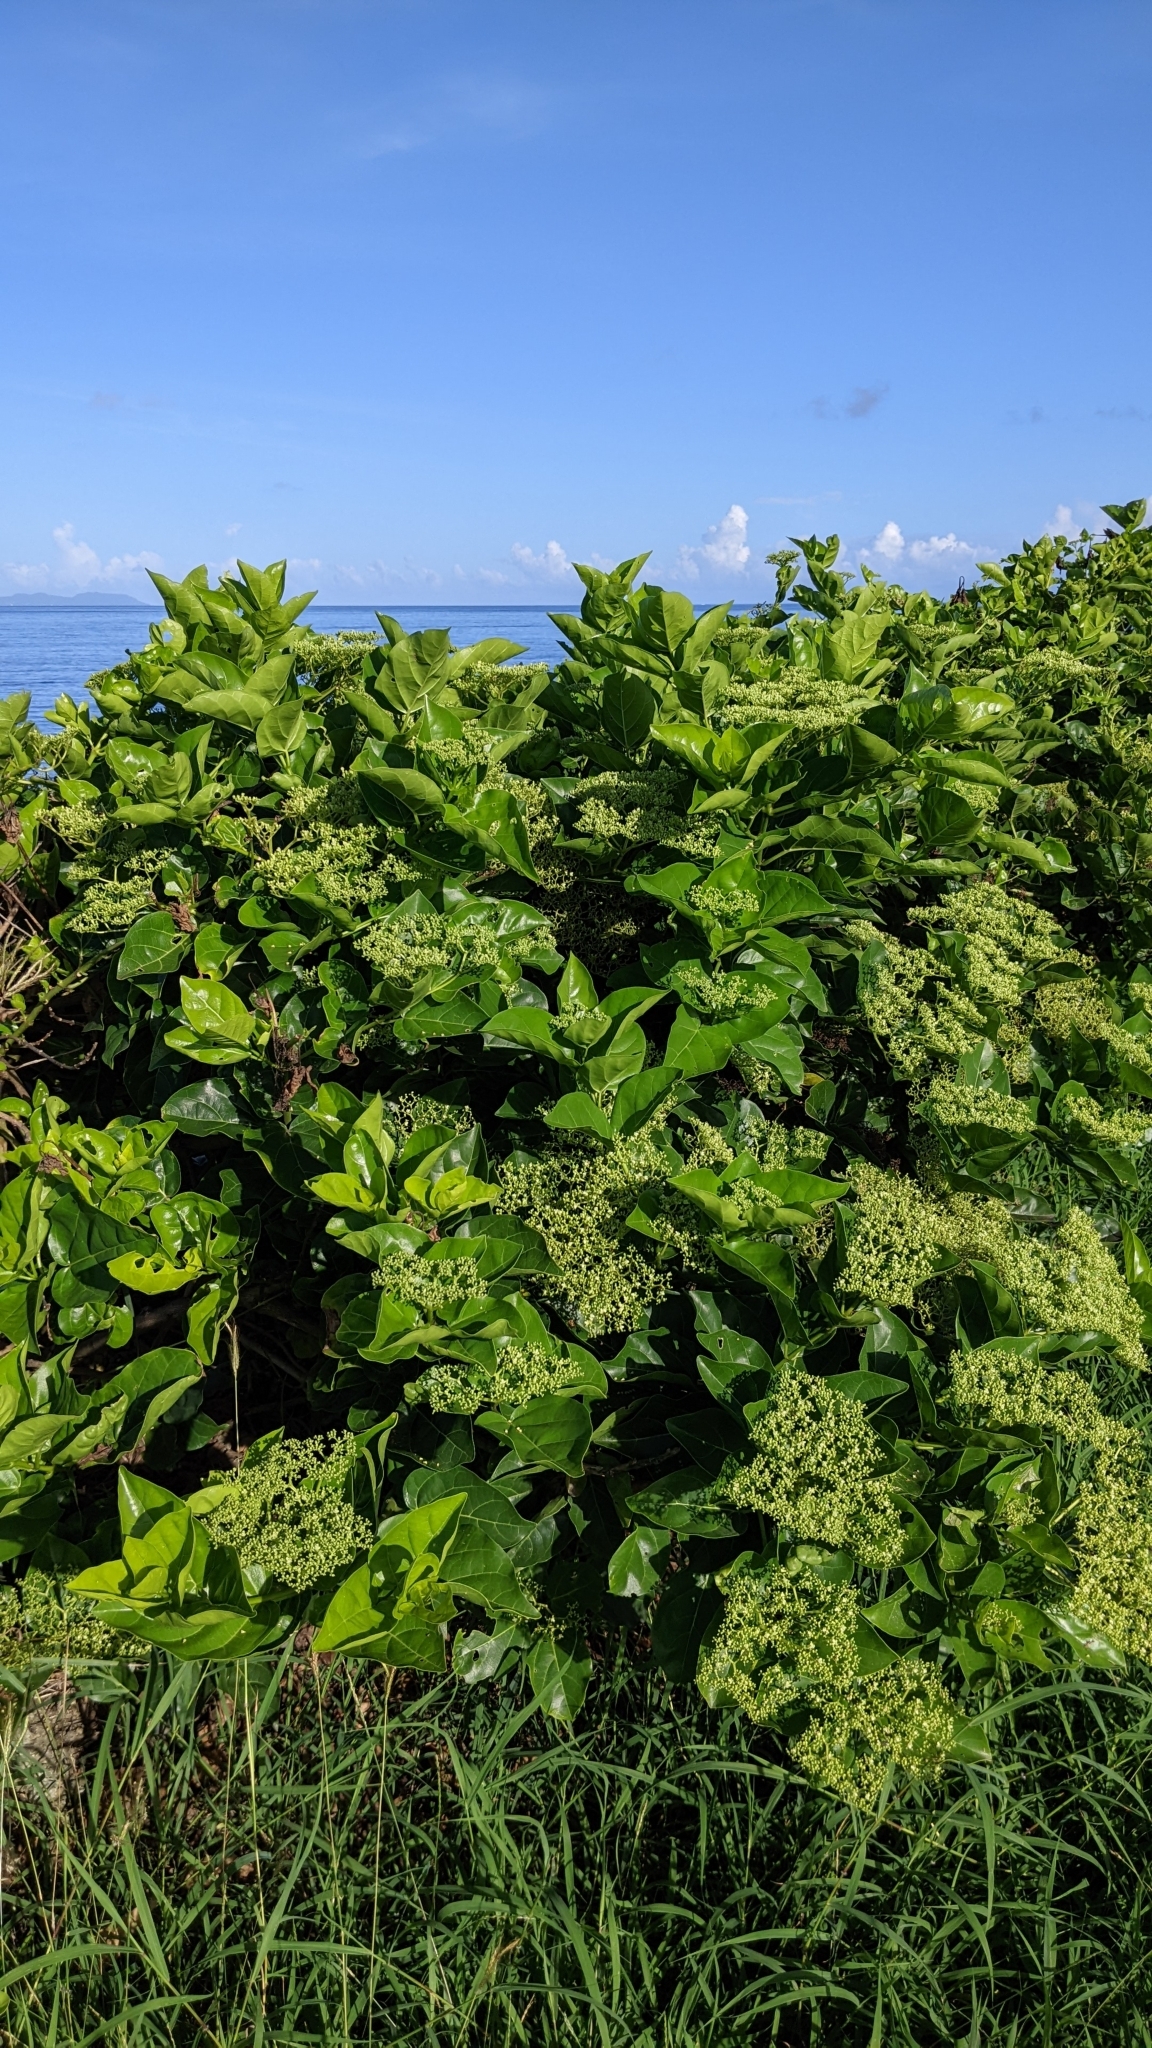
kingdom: Plantae
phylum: Tracheophyta
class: Magnoliopsida
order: Lamiales
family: Lamiaceae
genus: Premna
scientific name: Premna serratifolia
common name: Bastard guelder
